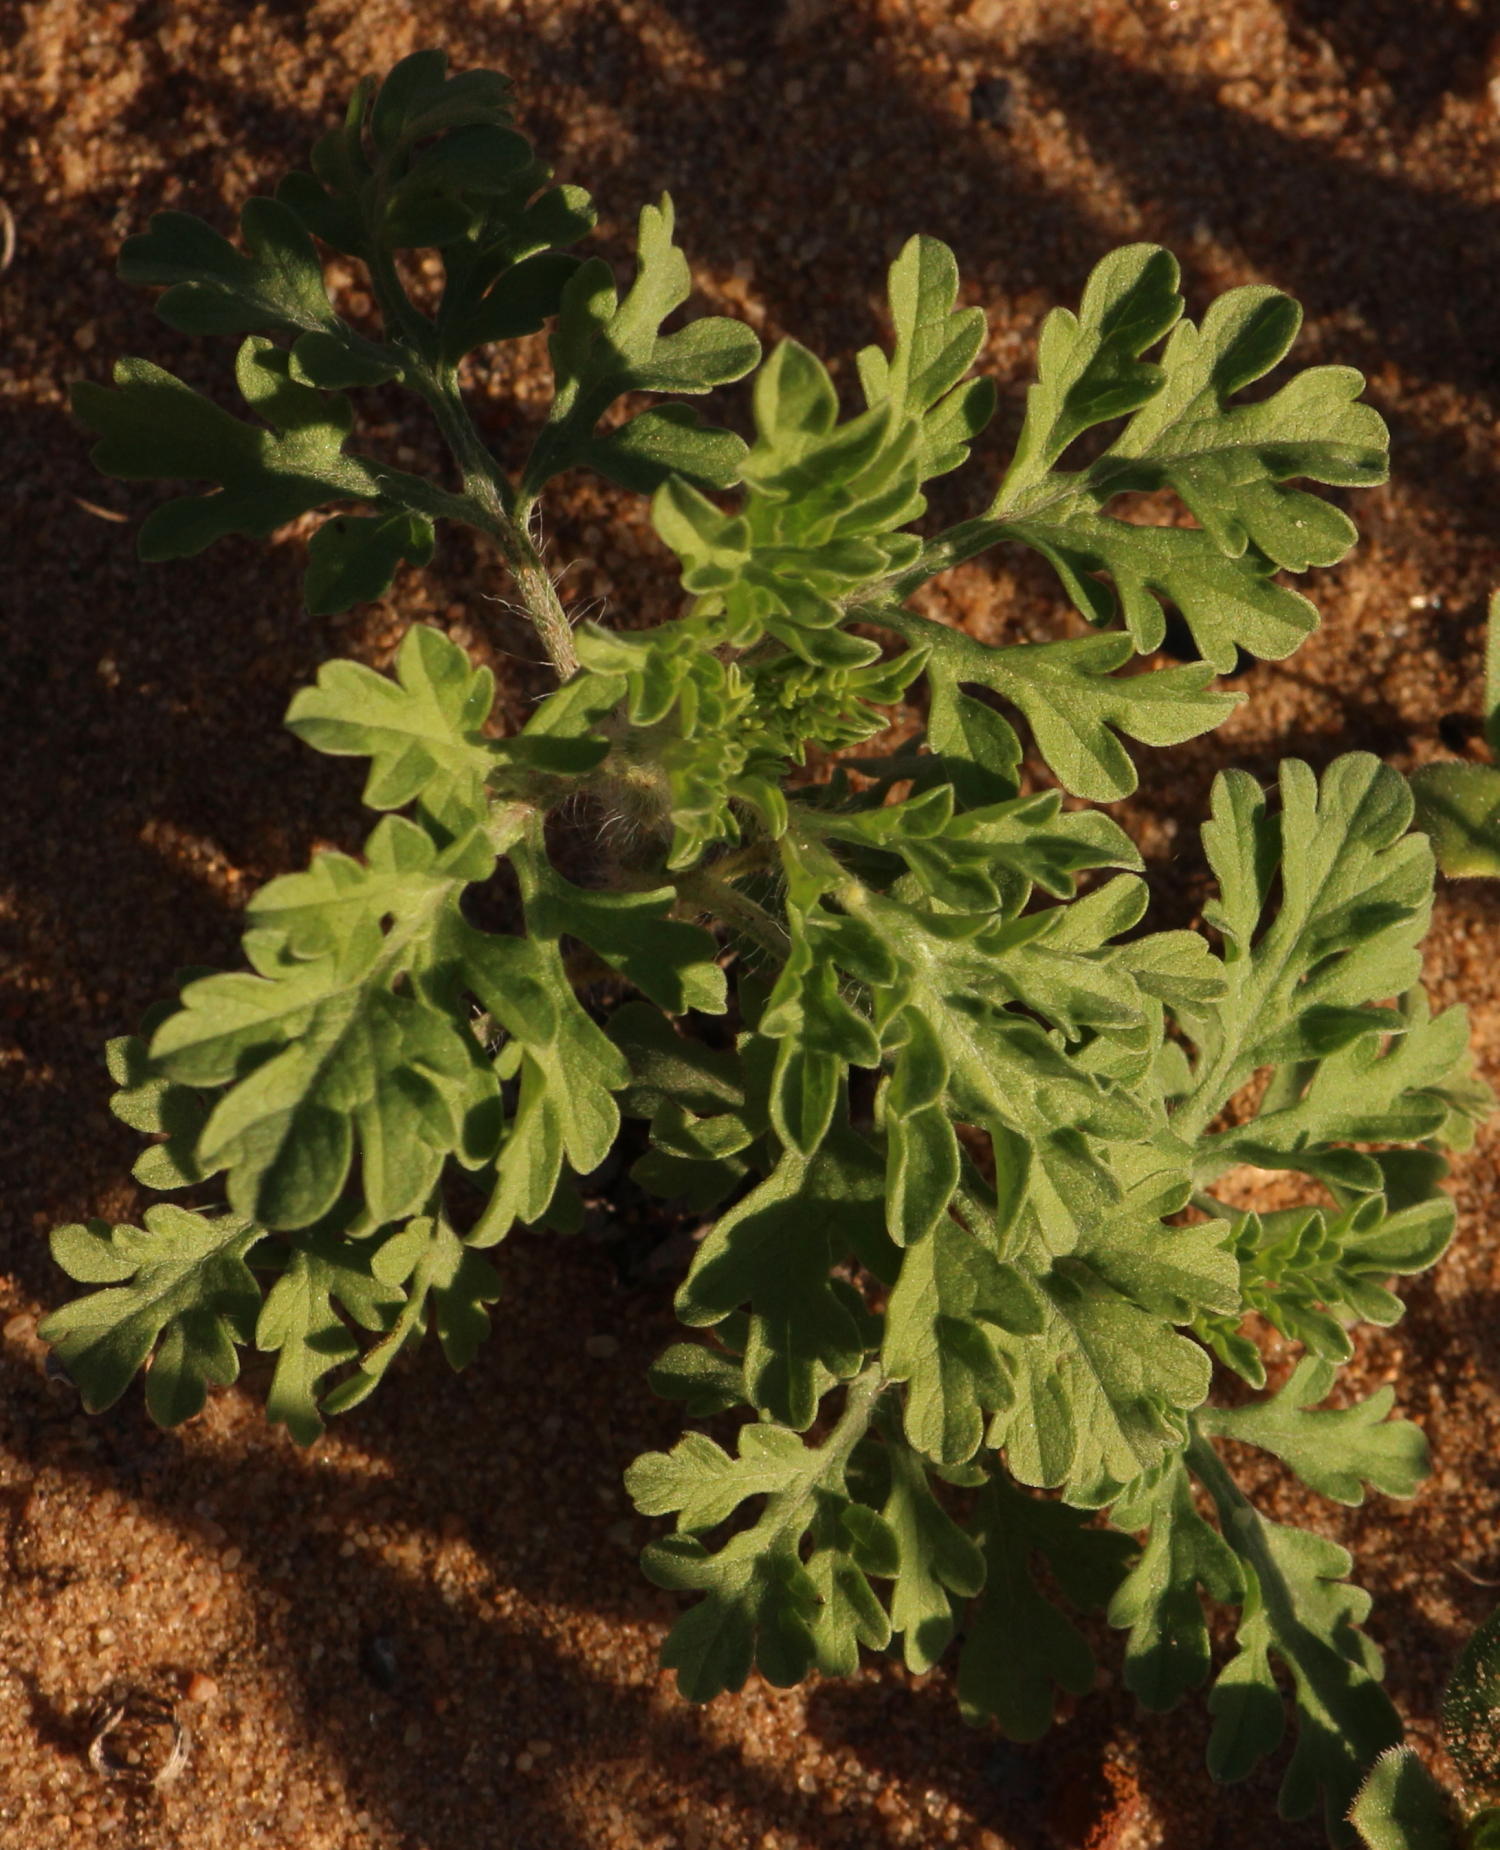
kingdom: Plantae
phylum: Tracheophyta
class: Magnoliopsida
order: Asterales
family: Asteraceae
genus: Parthenium
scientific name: Parthenium hysterophorus
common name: Santa maria feverfew
